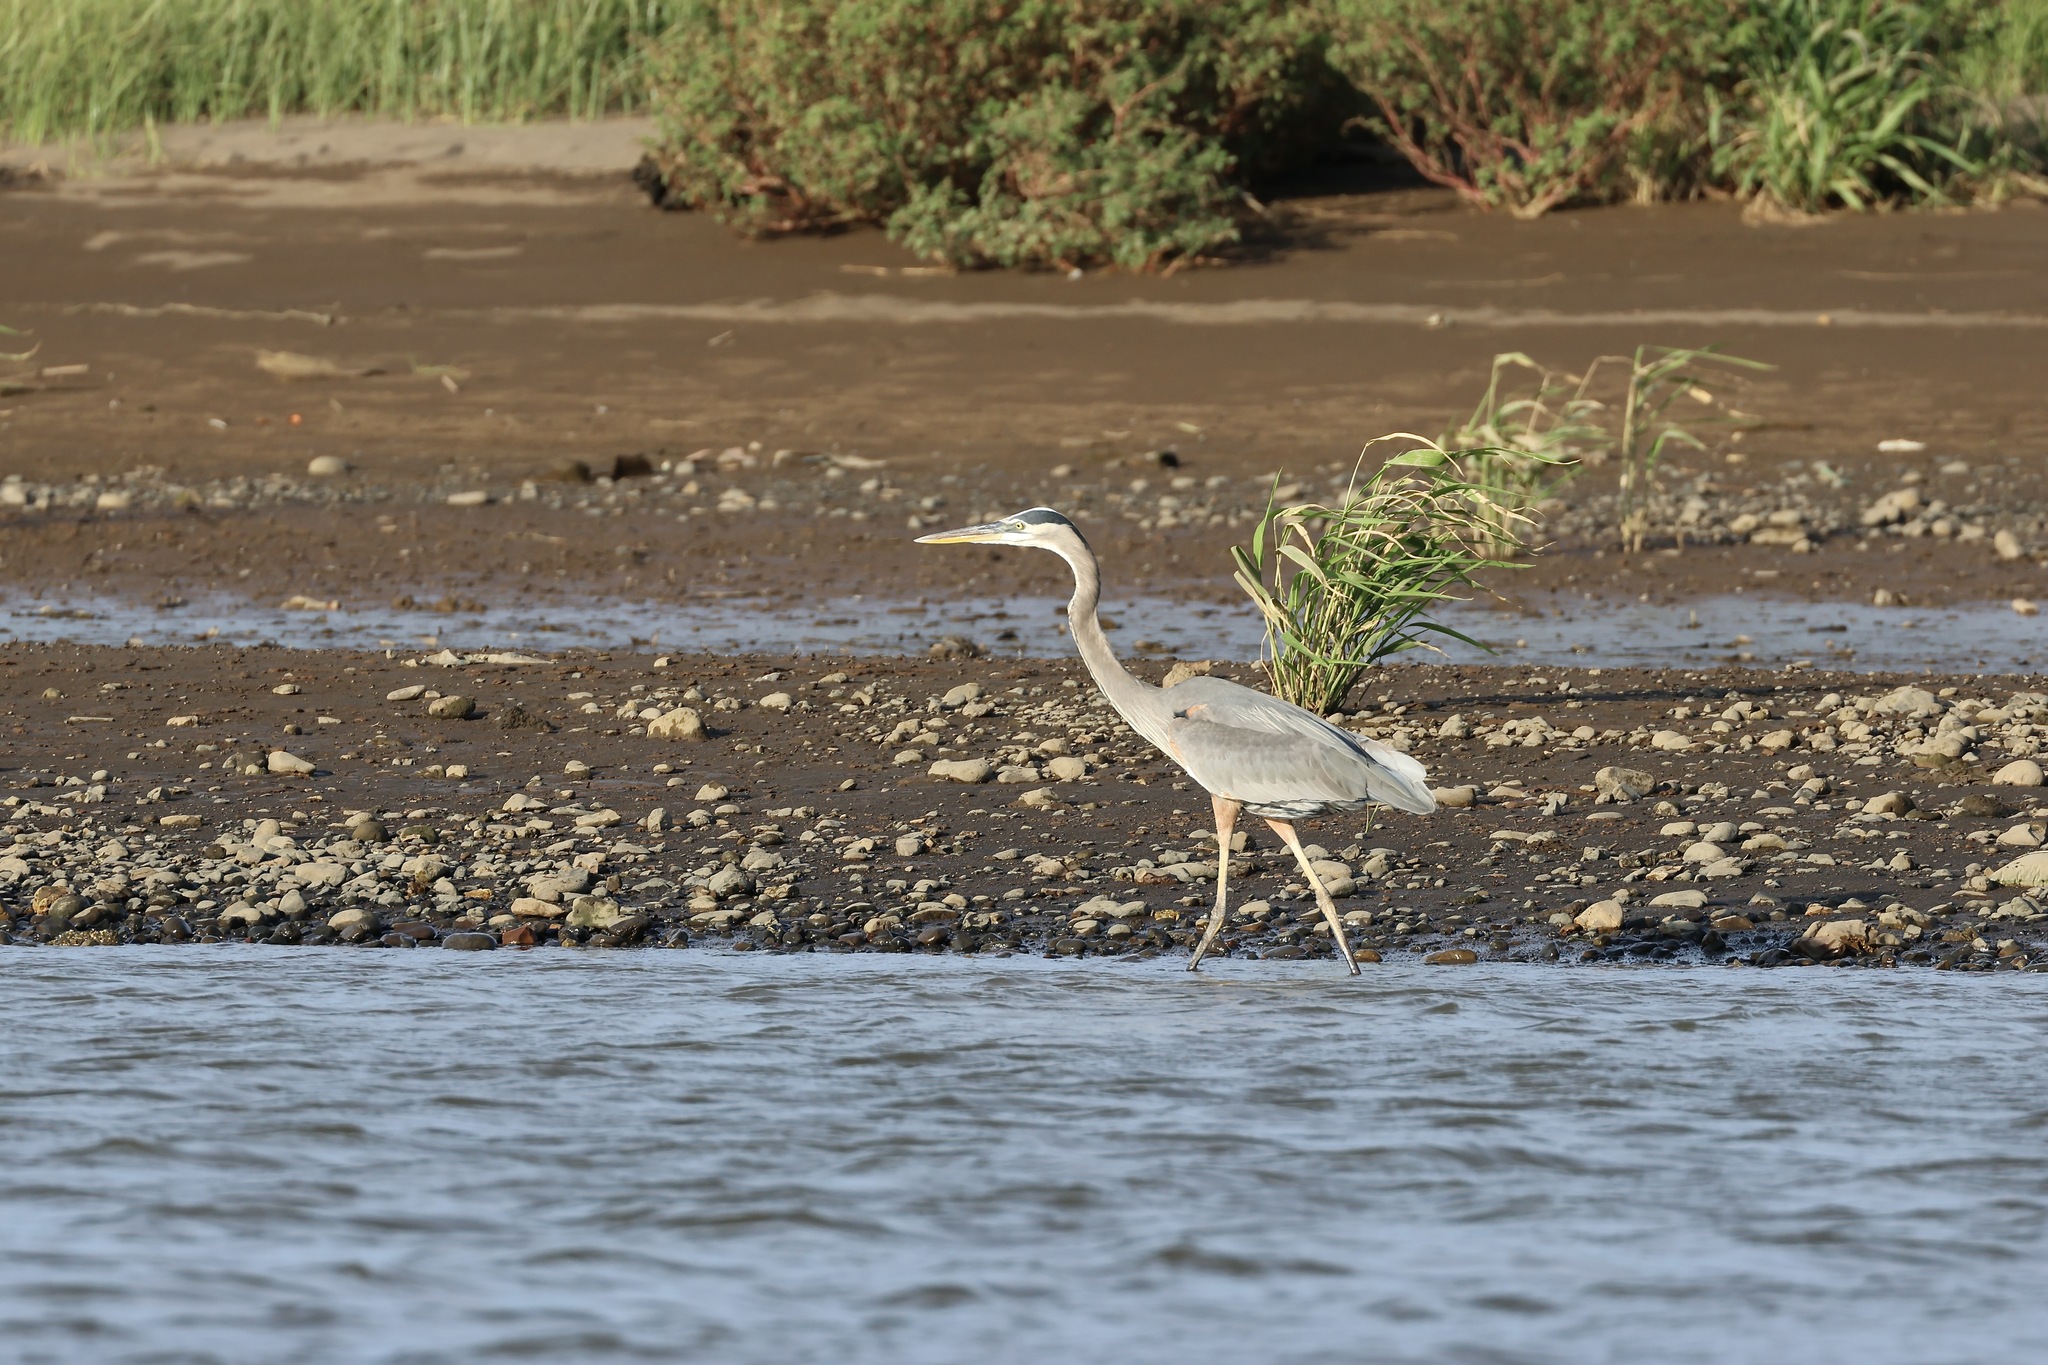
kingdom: Animalia
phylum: Chordata
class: Aves
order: Pelecaniformes
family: Ardeidae
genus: Ardea
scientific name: Ardea herodias
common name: Great blue heron
